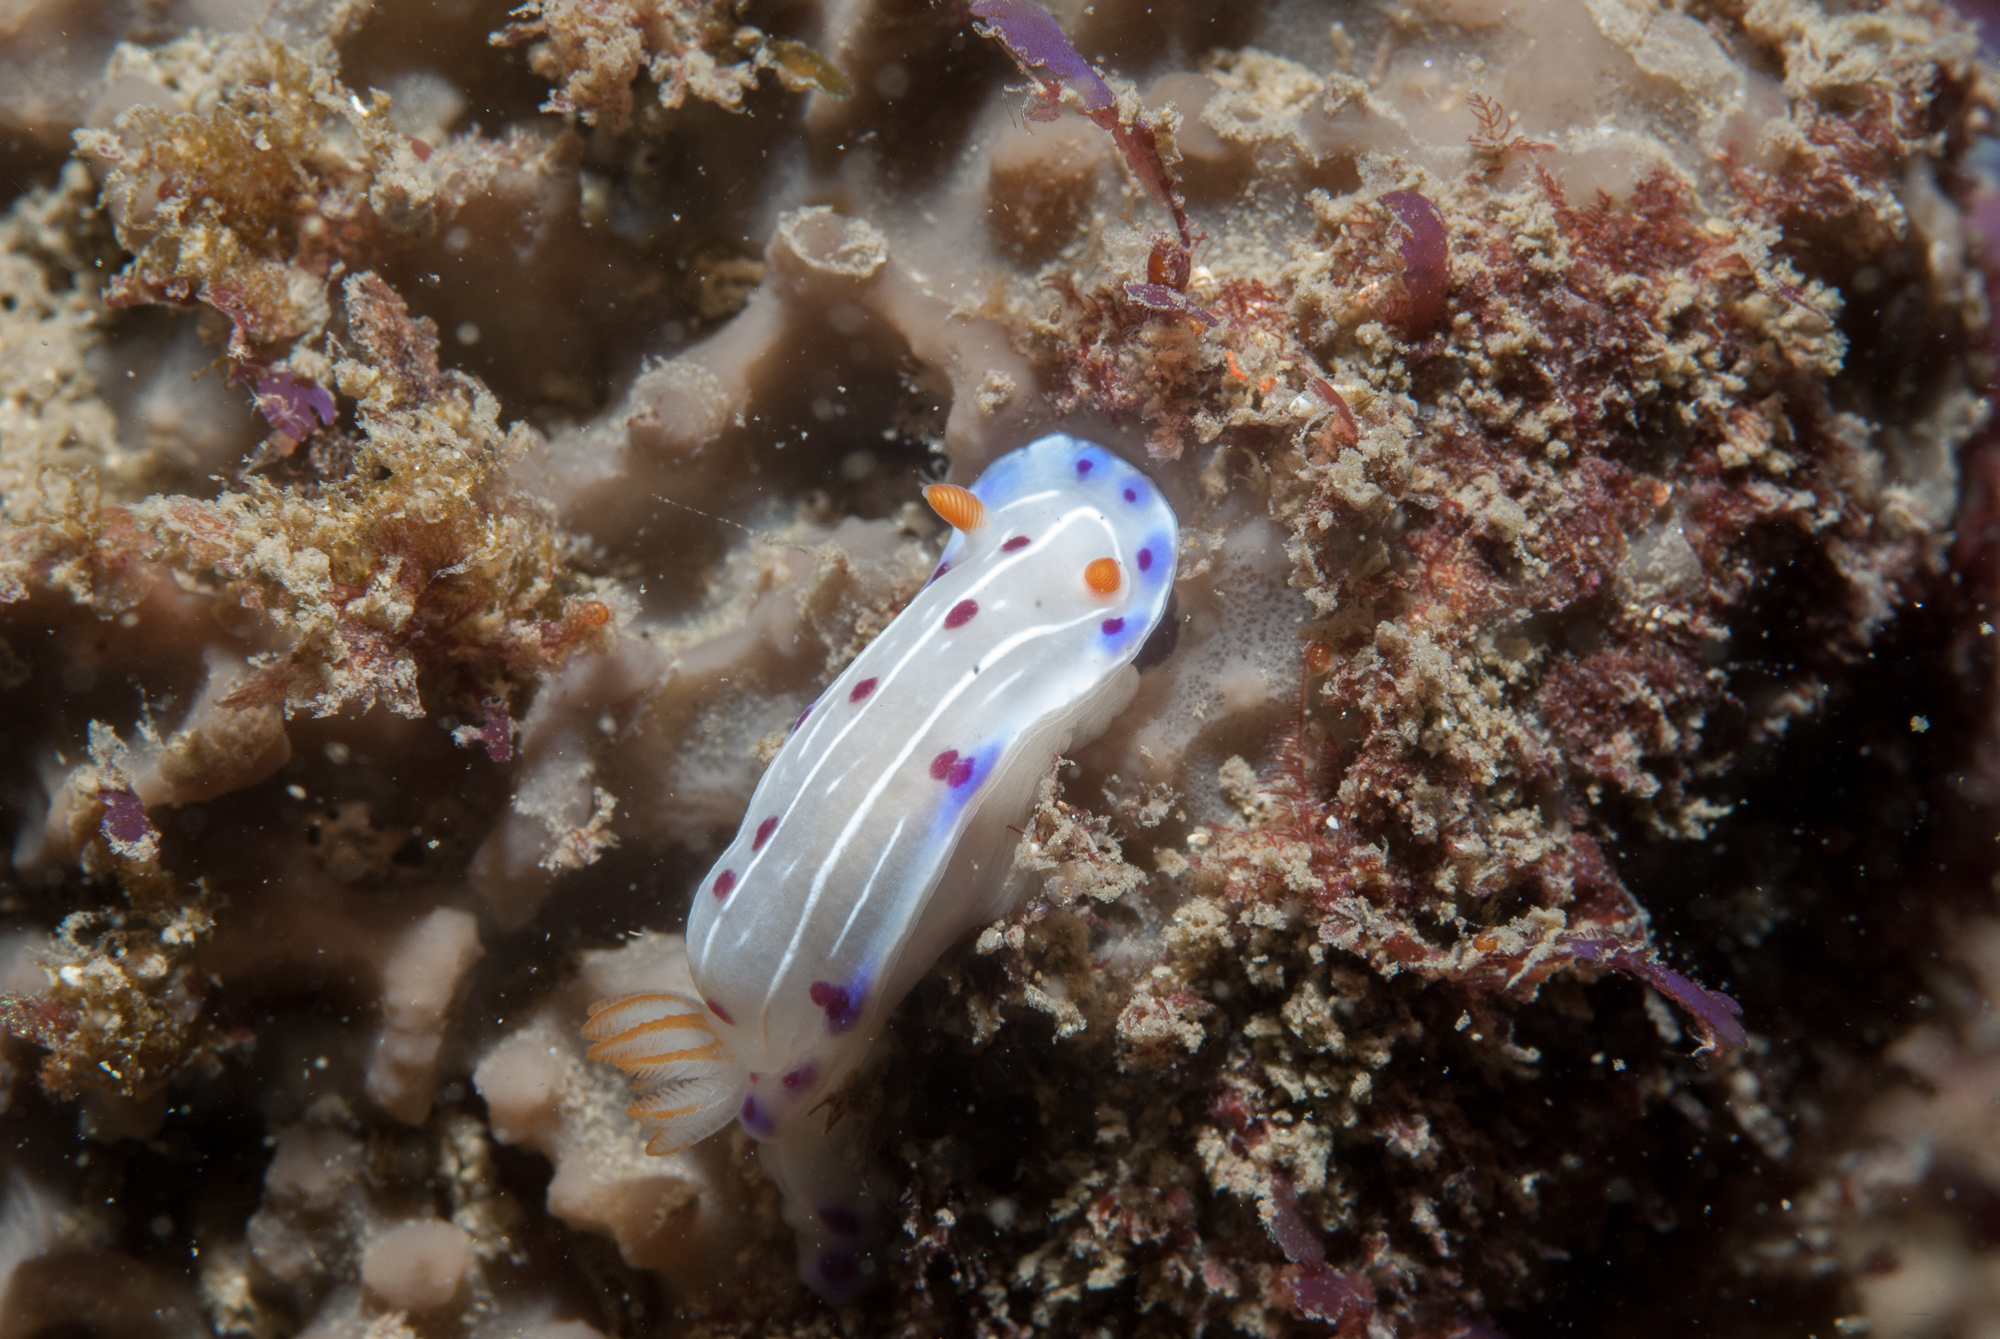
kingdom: Animalia
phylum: Mollusca
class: Gastropoda
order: Nudibranchia
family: Chromodorididae
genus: Hypselodoris
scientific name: Hypselodoris capensis
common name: Cape dorid
